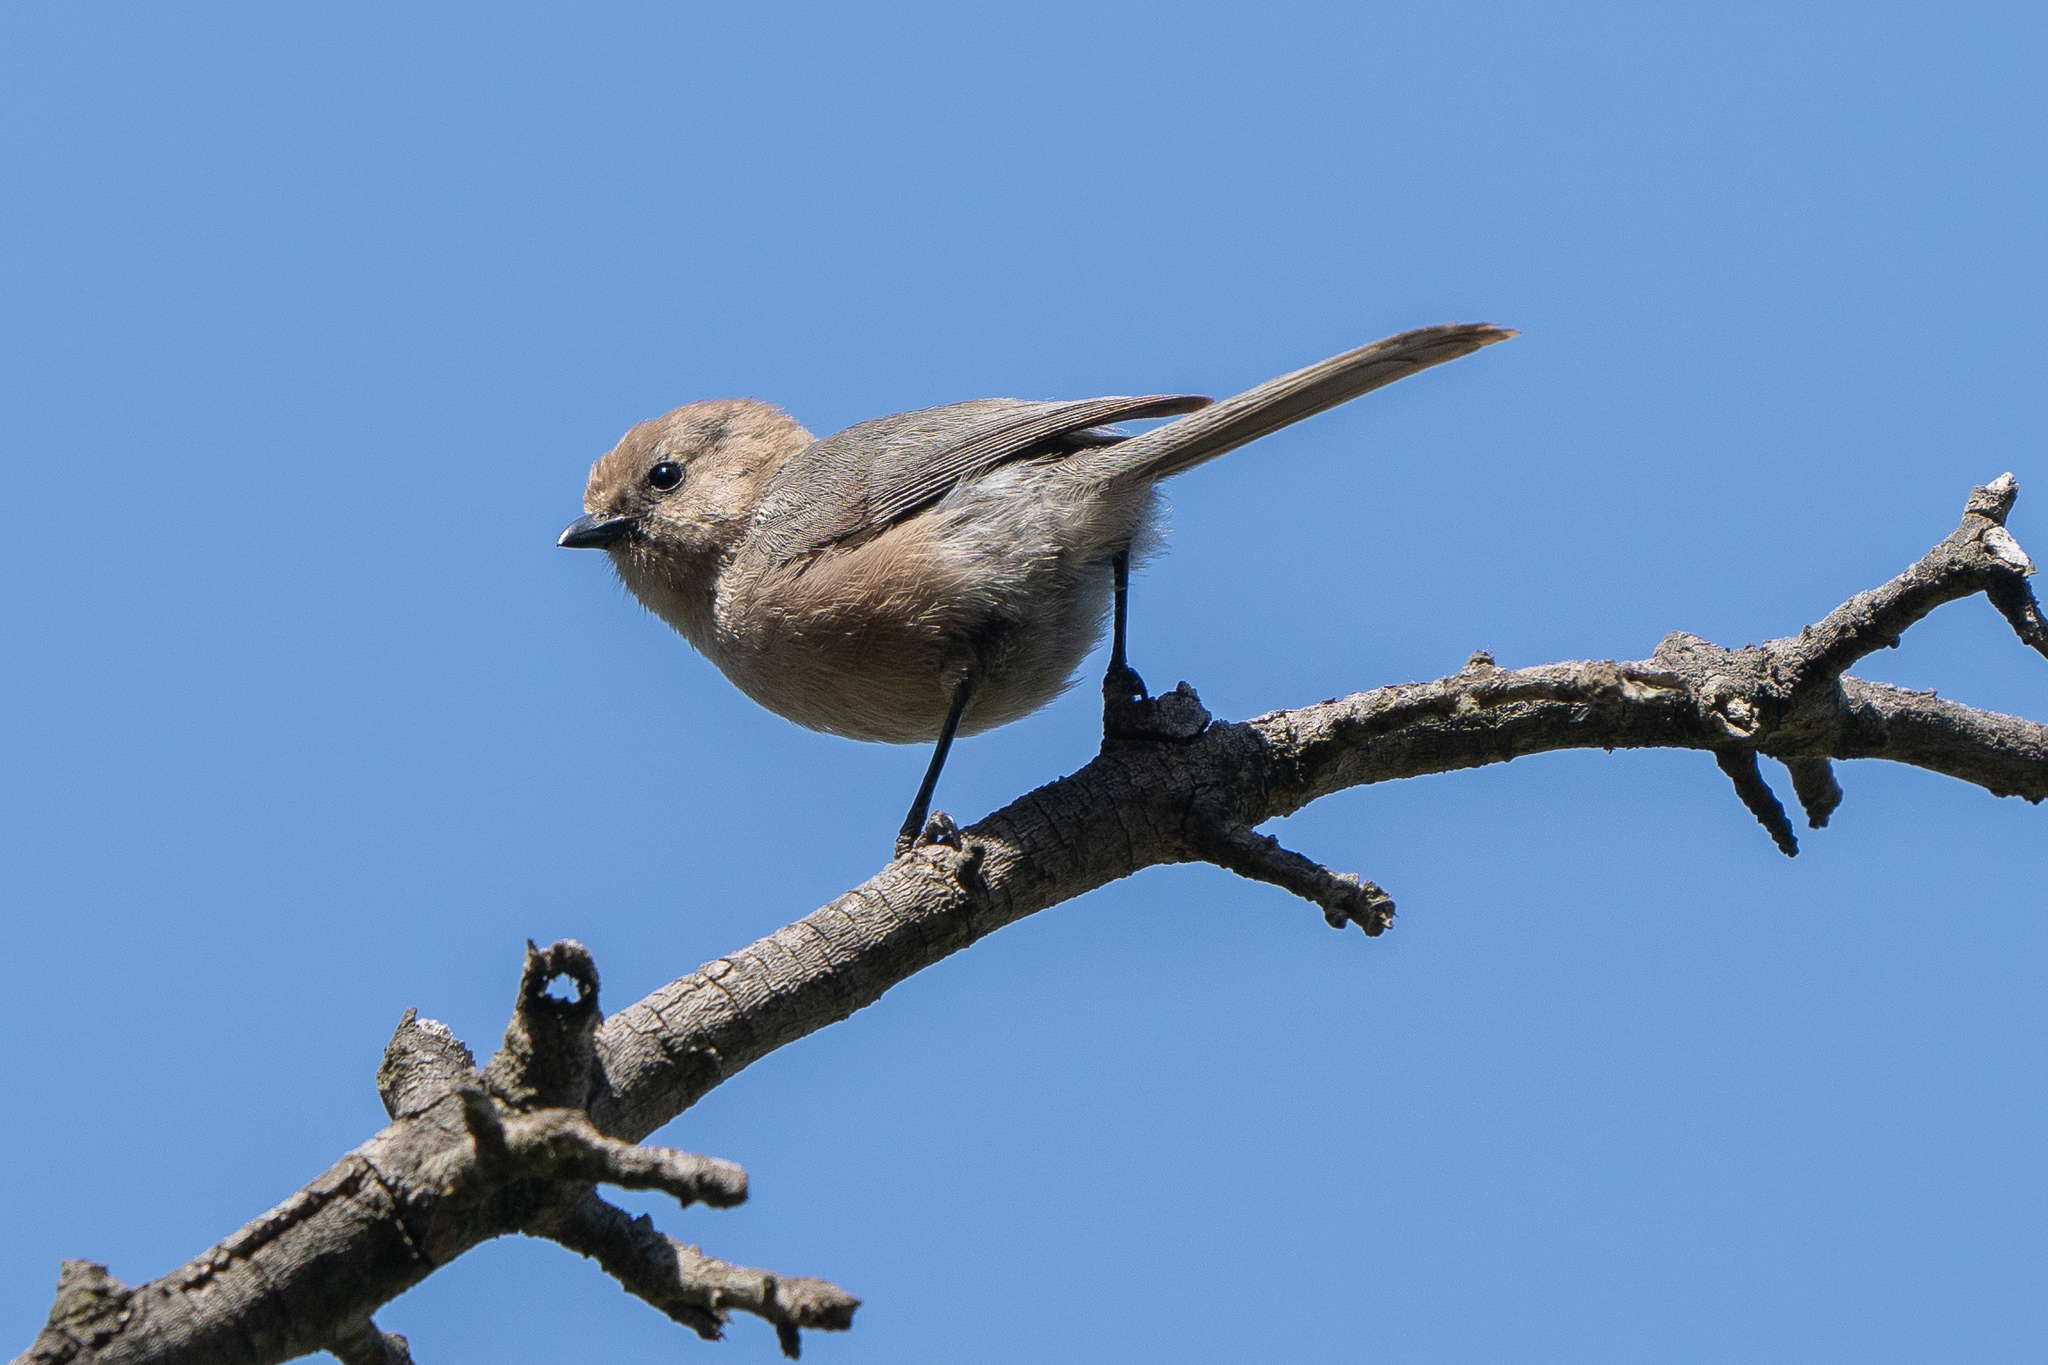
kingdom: Animalia
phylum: Chordata
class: Aves
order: Passeriformes
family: Aegithalidae
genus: Psaltriparus
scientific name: Psaltriparus minimus
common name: American bushtit
